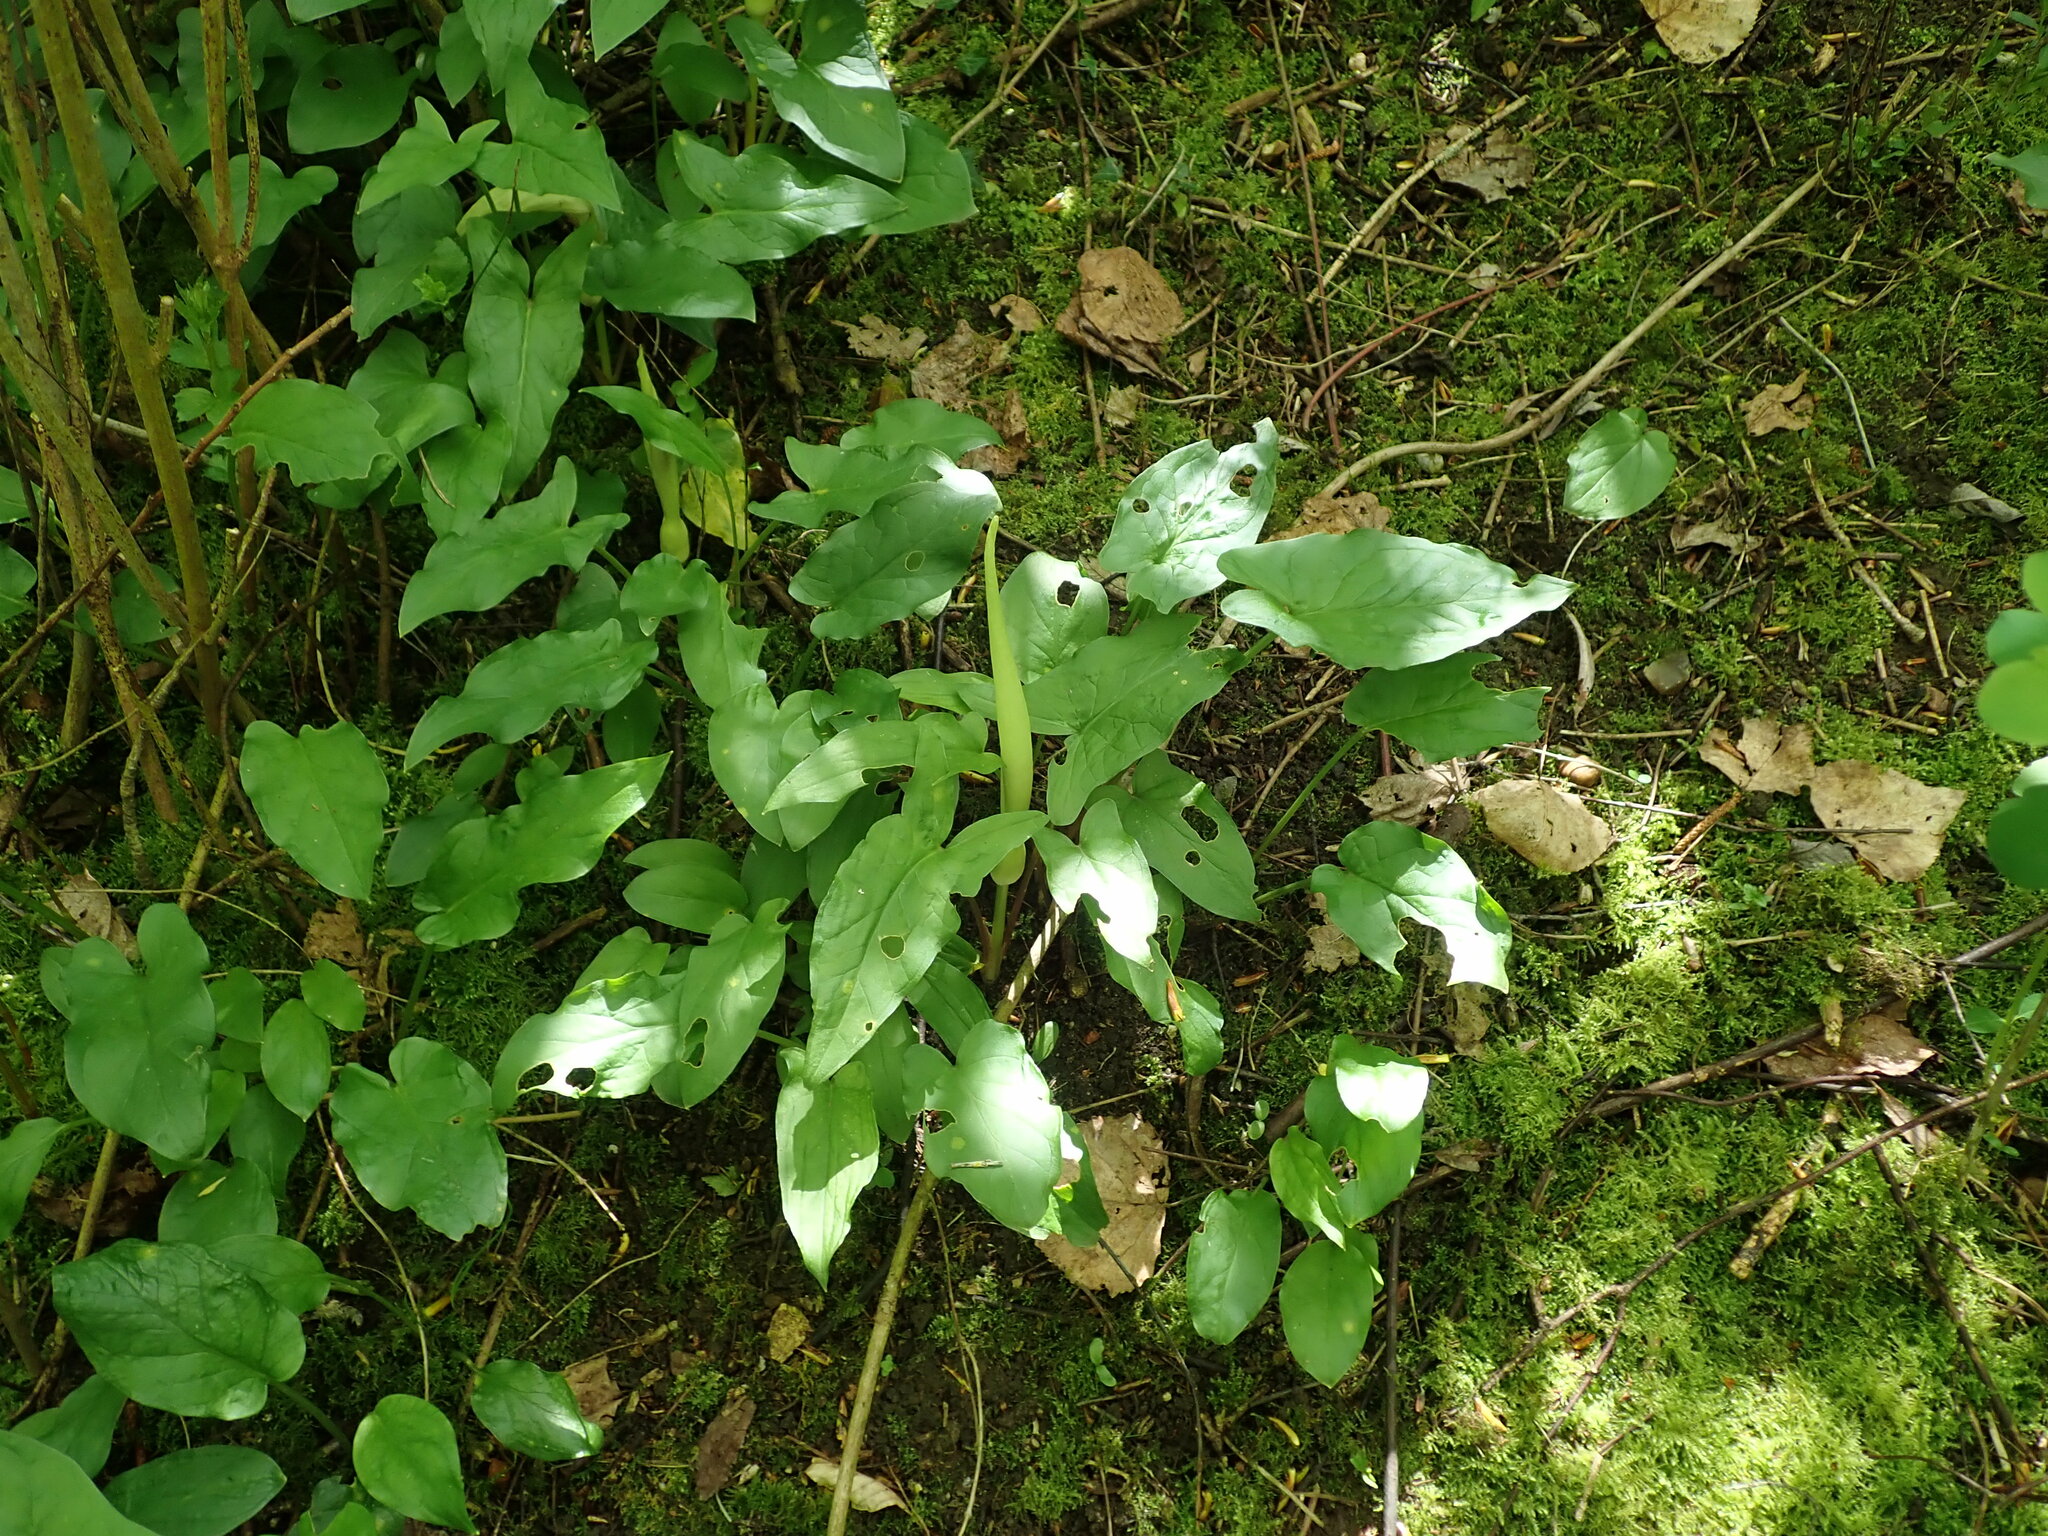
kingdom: Plantae
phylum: Tracheophyta
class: Liliopsida
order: Alismatales
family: Araceae
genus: Arum
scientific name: Arum maculatum
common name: Lords-and-ladies
